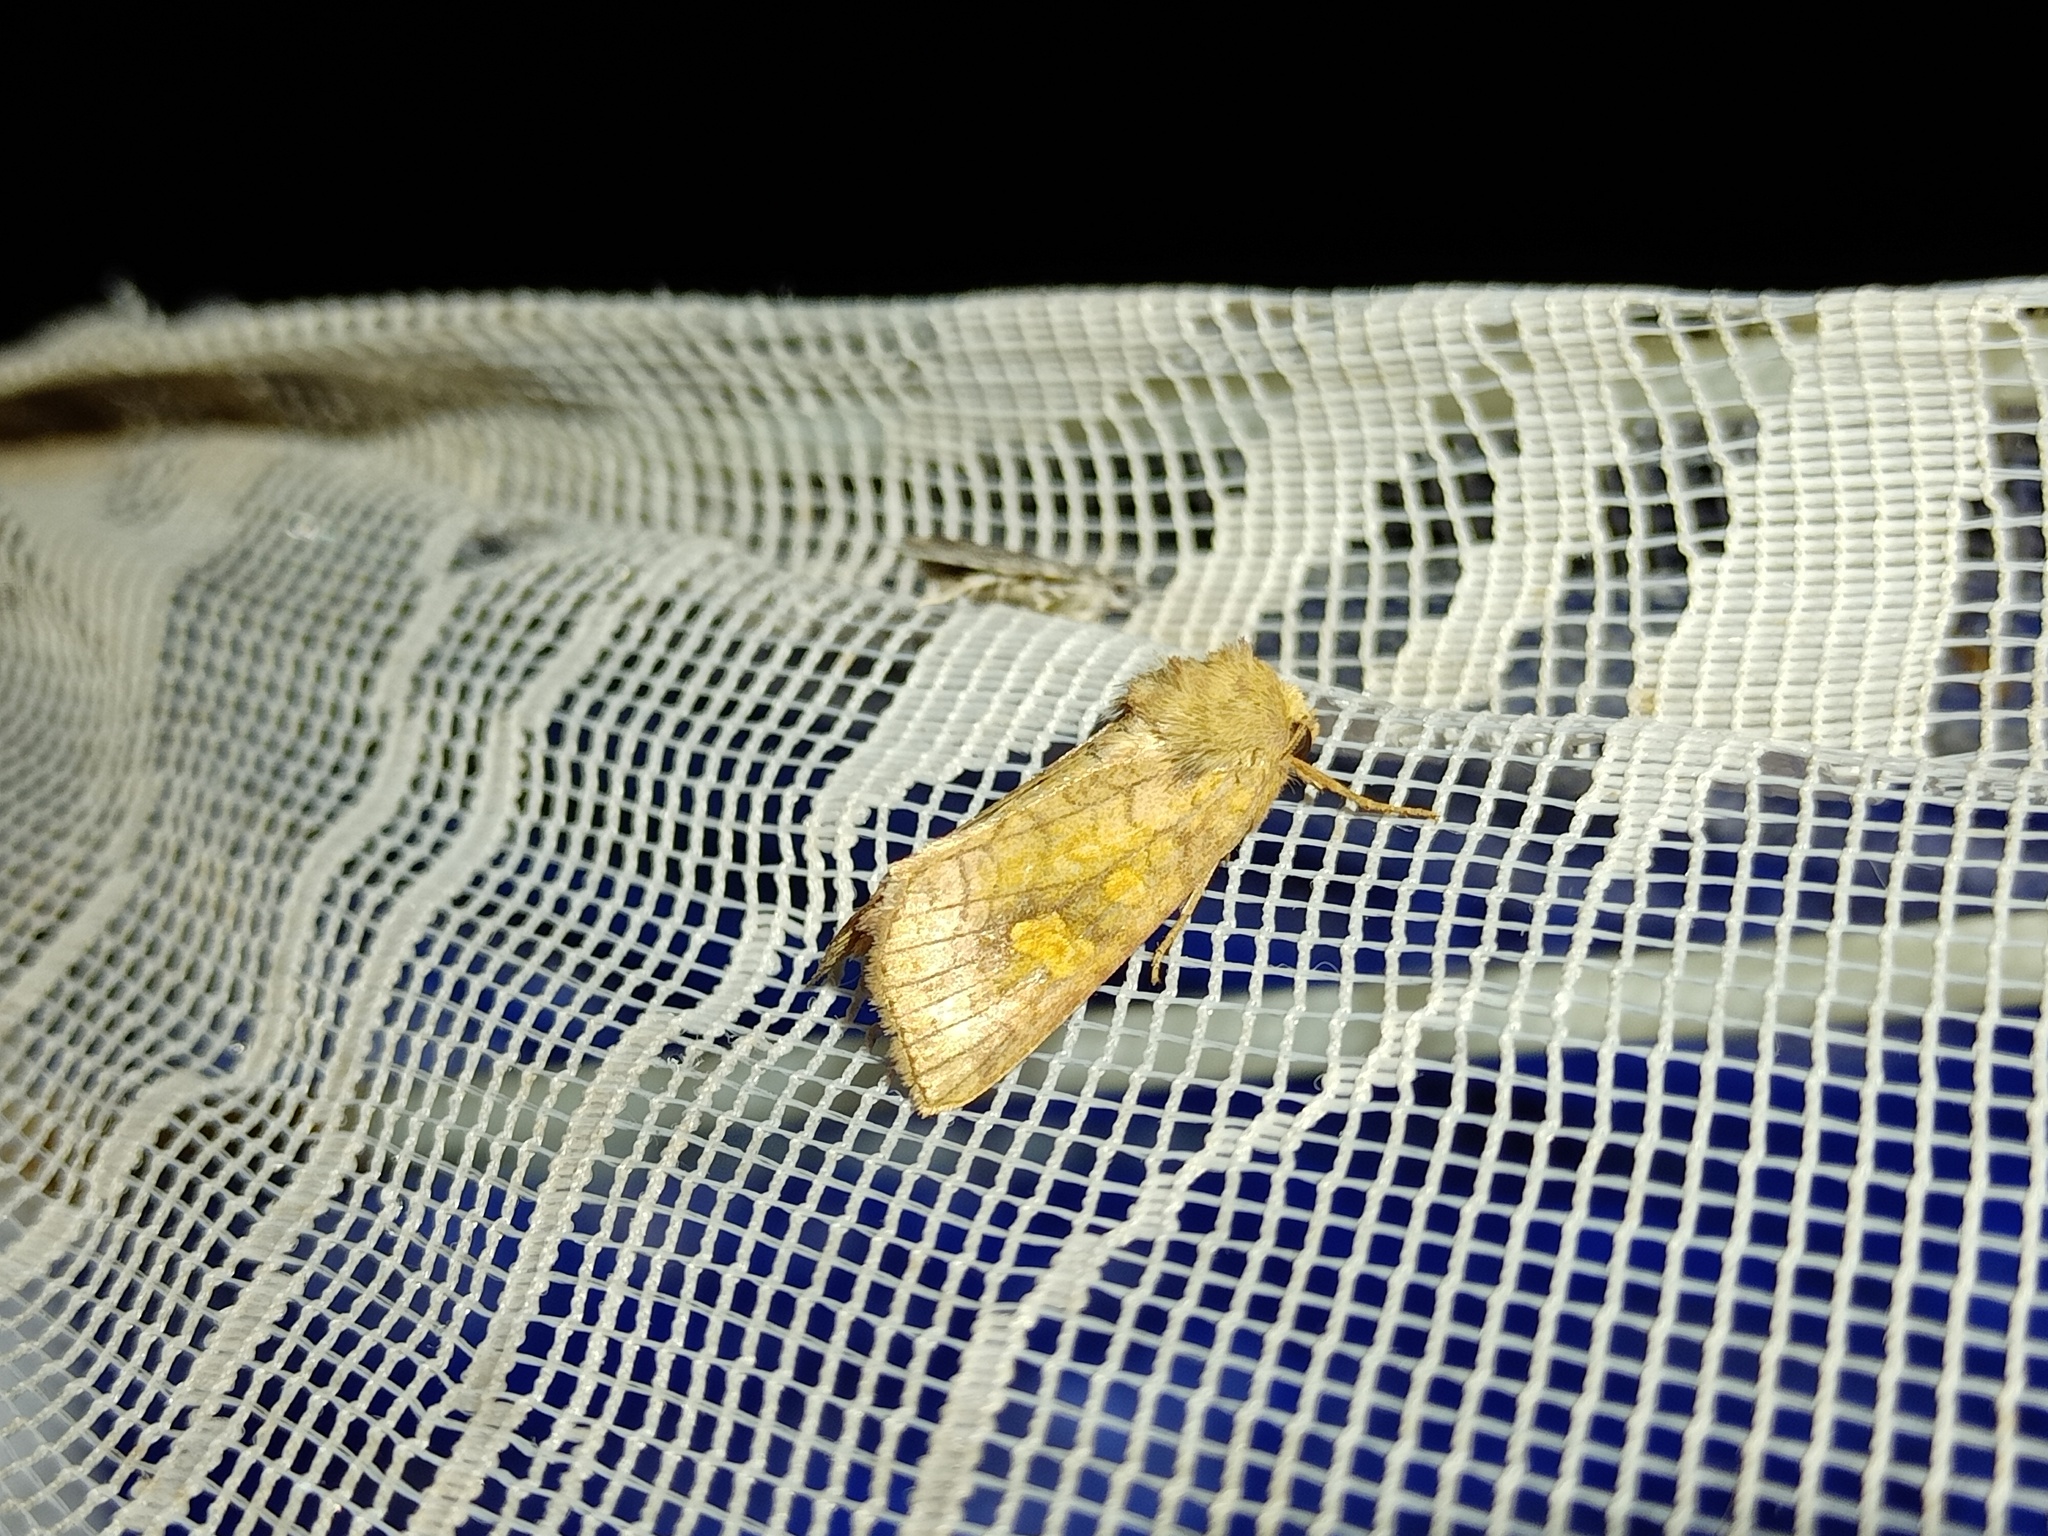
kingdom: Animalia
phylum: Arthropoda
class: Insecta
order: Lepidoptera
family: Noctuidae
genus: Amphipoea
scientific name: Amphipoea fucosa
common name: Saltern ear
